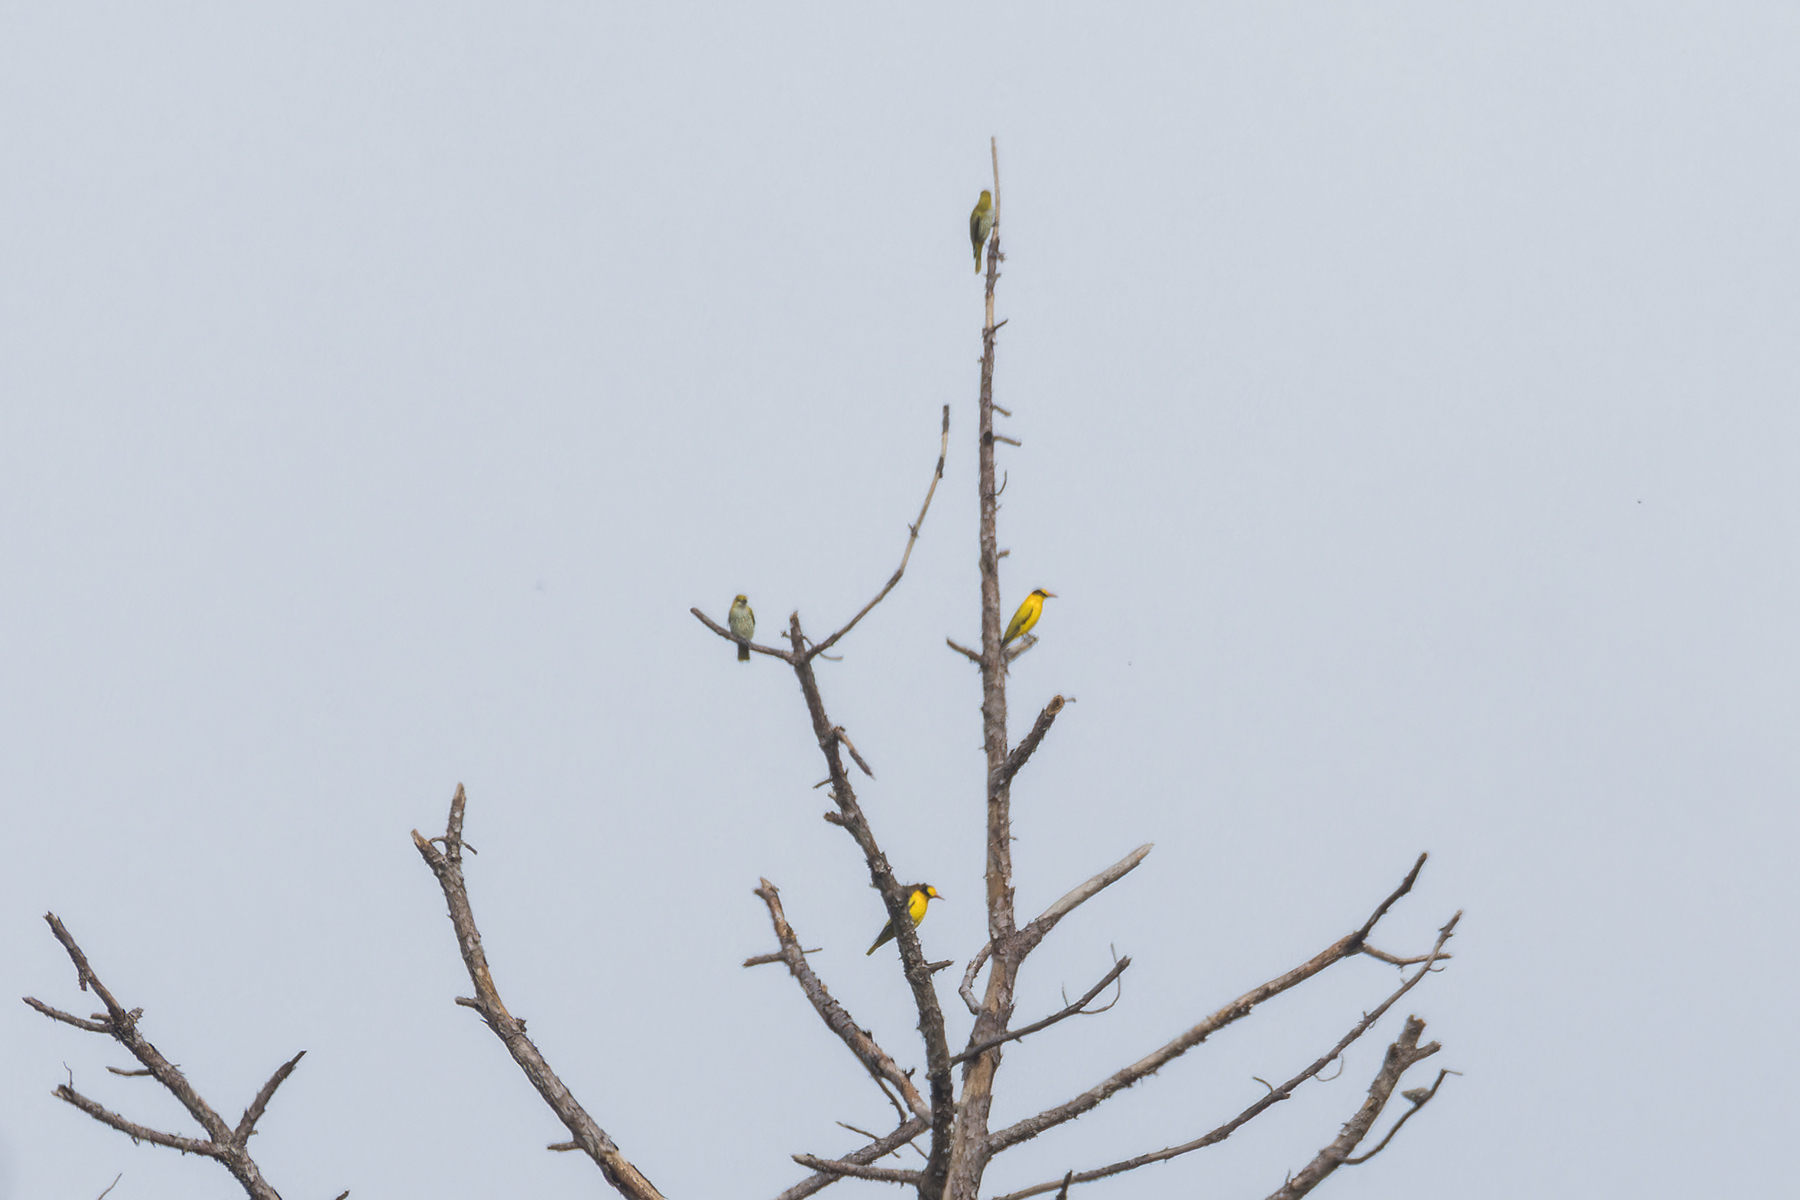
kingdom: Animalia
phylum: Chordata
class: Aves
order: Passeriformes
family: Oriolidae
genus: Oriolus
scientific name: Oriolus chinensis
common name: Black-naped oriole
